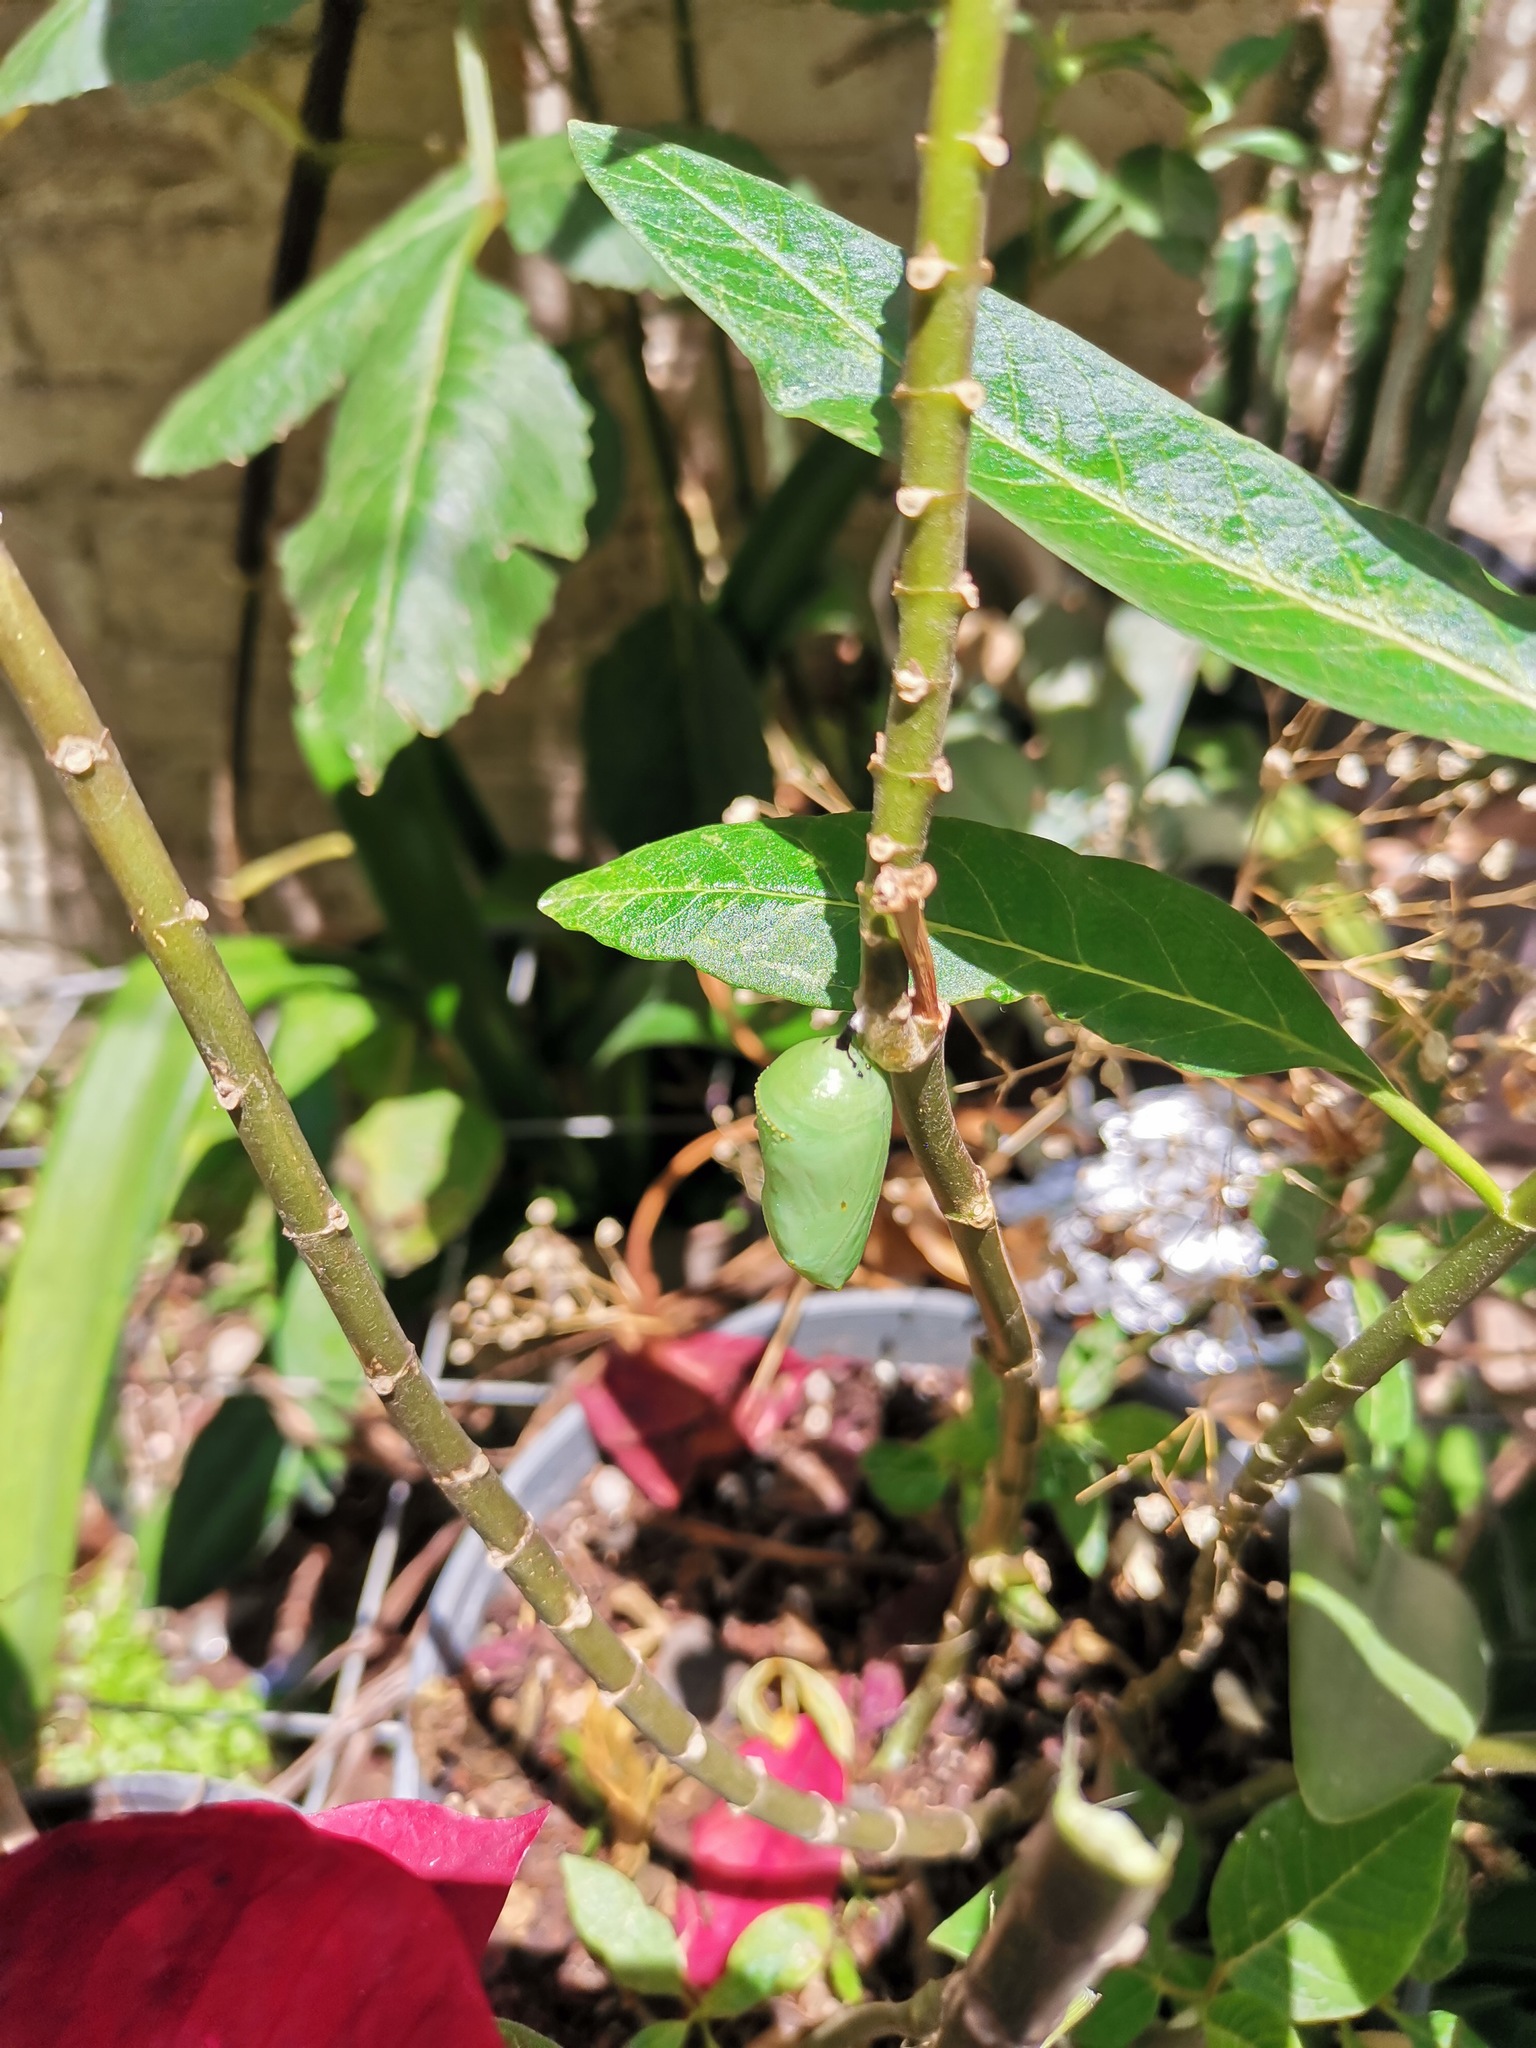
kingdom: Animalia
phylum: Arthropoda
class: Insecta
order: Lepidoptera
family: Nymphalidae
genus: Danaus
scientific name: Danaus plexippus
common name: Monarch
